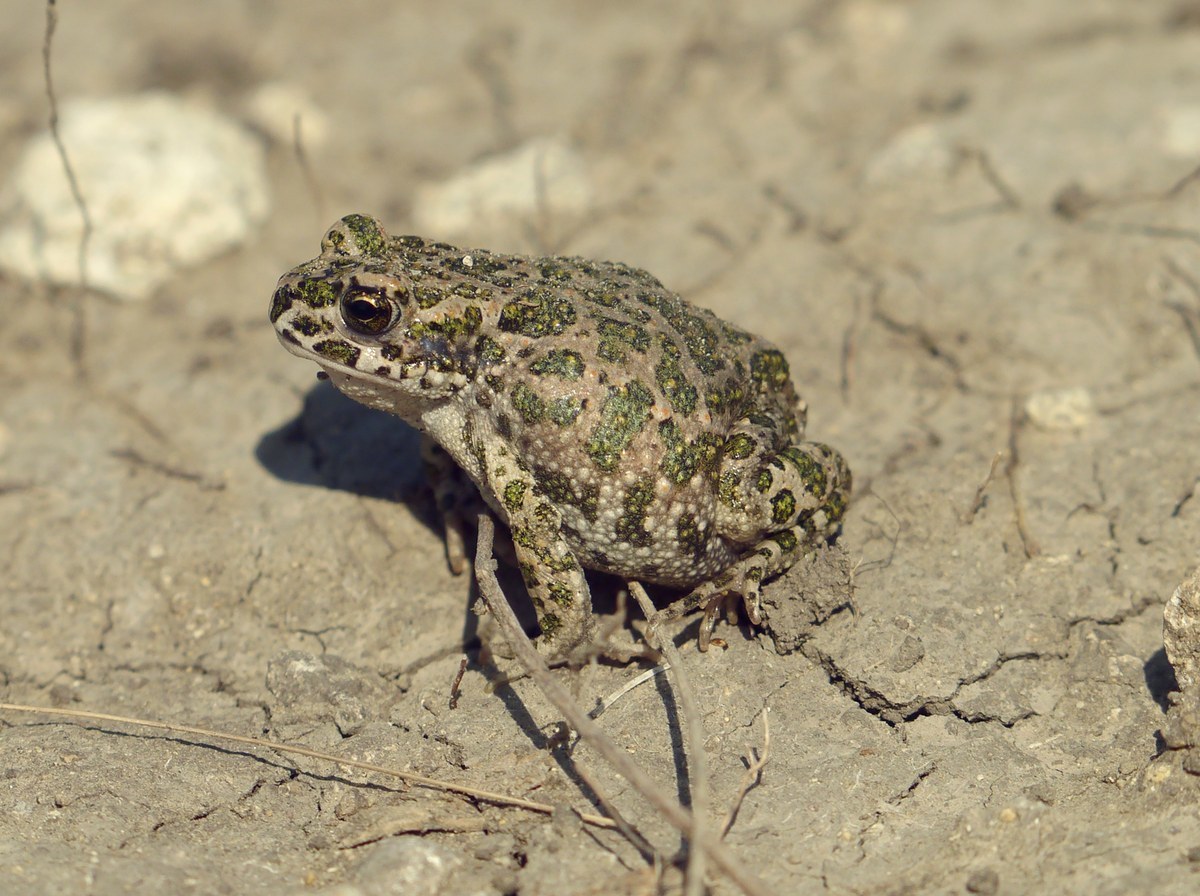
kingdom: Animalia
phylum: Chordata
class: Amphibia
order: Anura
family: Bufonidae
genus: Bufotes
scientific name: Bufotes viridis
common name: European green toad
